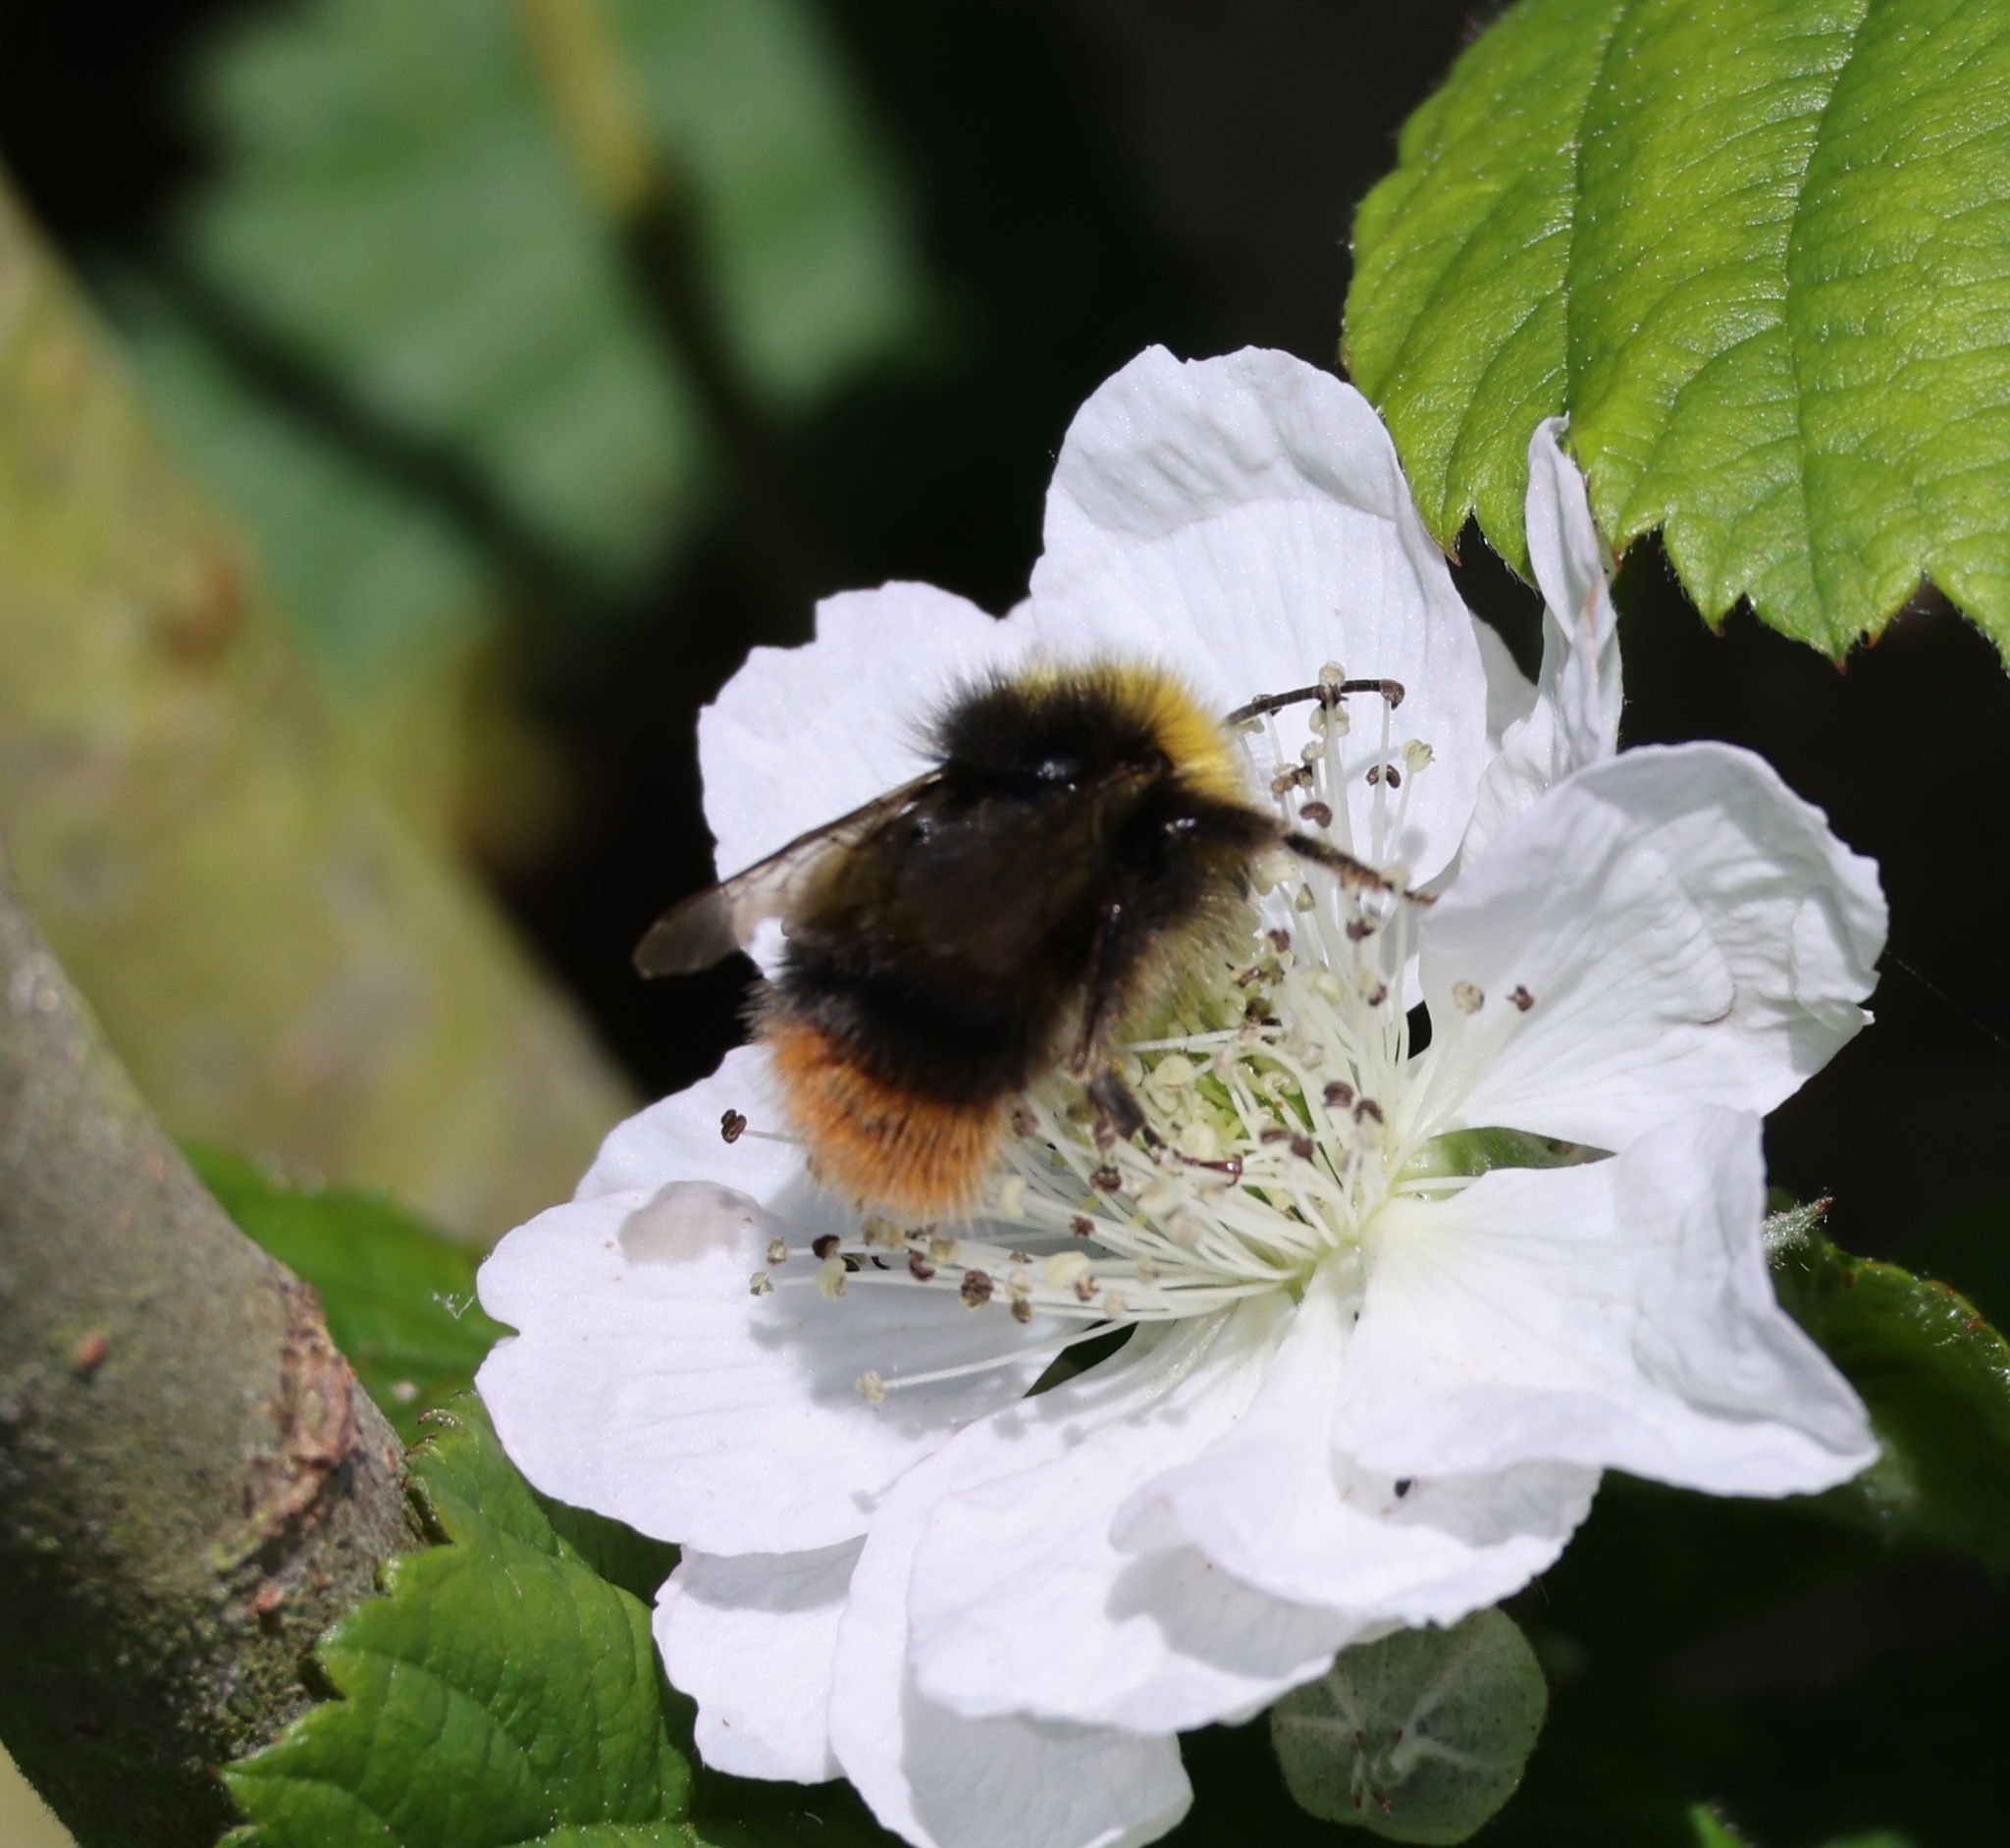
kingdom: Animalia
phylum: Arthropoda
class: Insecta
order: Hymenoptera
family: Apidae
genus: Bombus
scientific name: Bombus pratorum
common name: Early humble-bee
